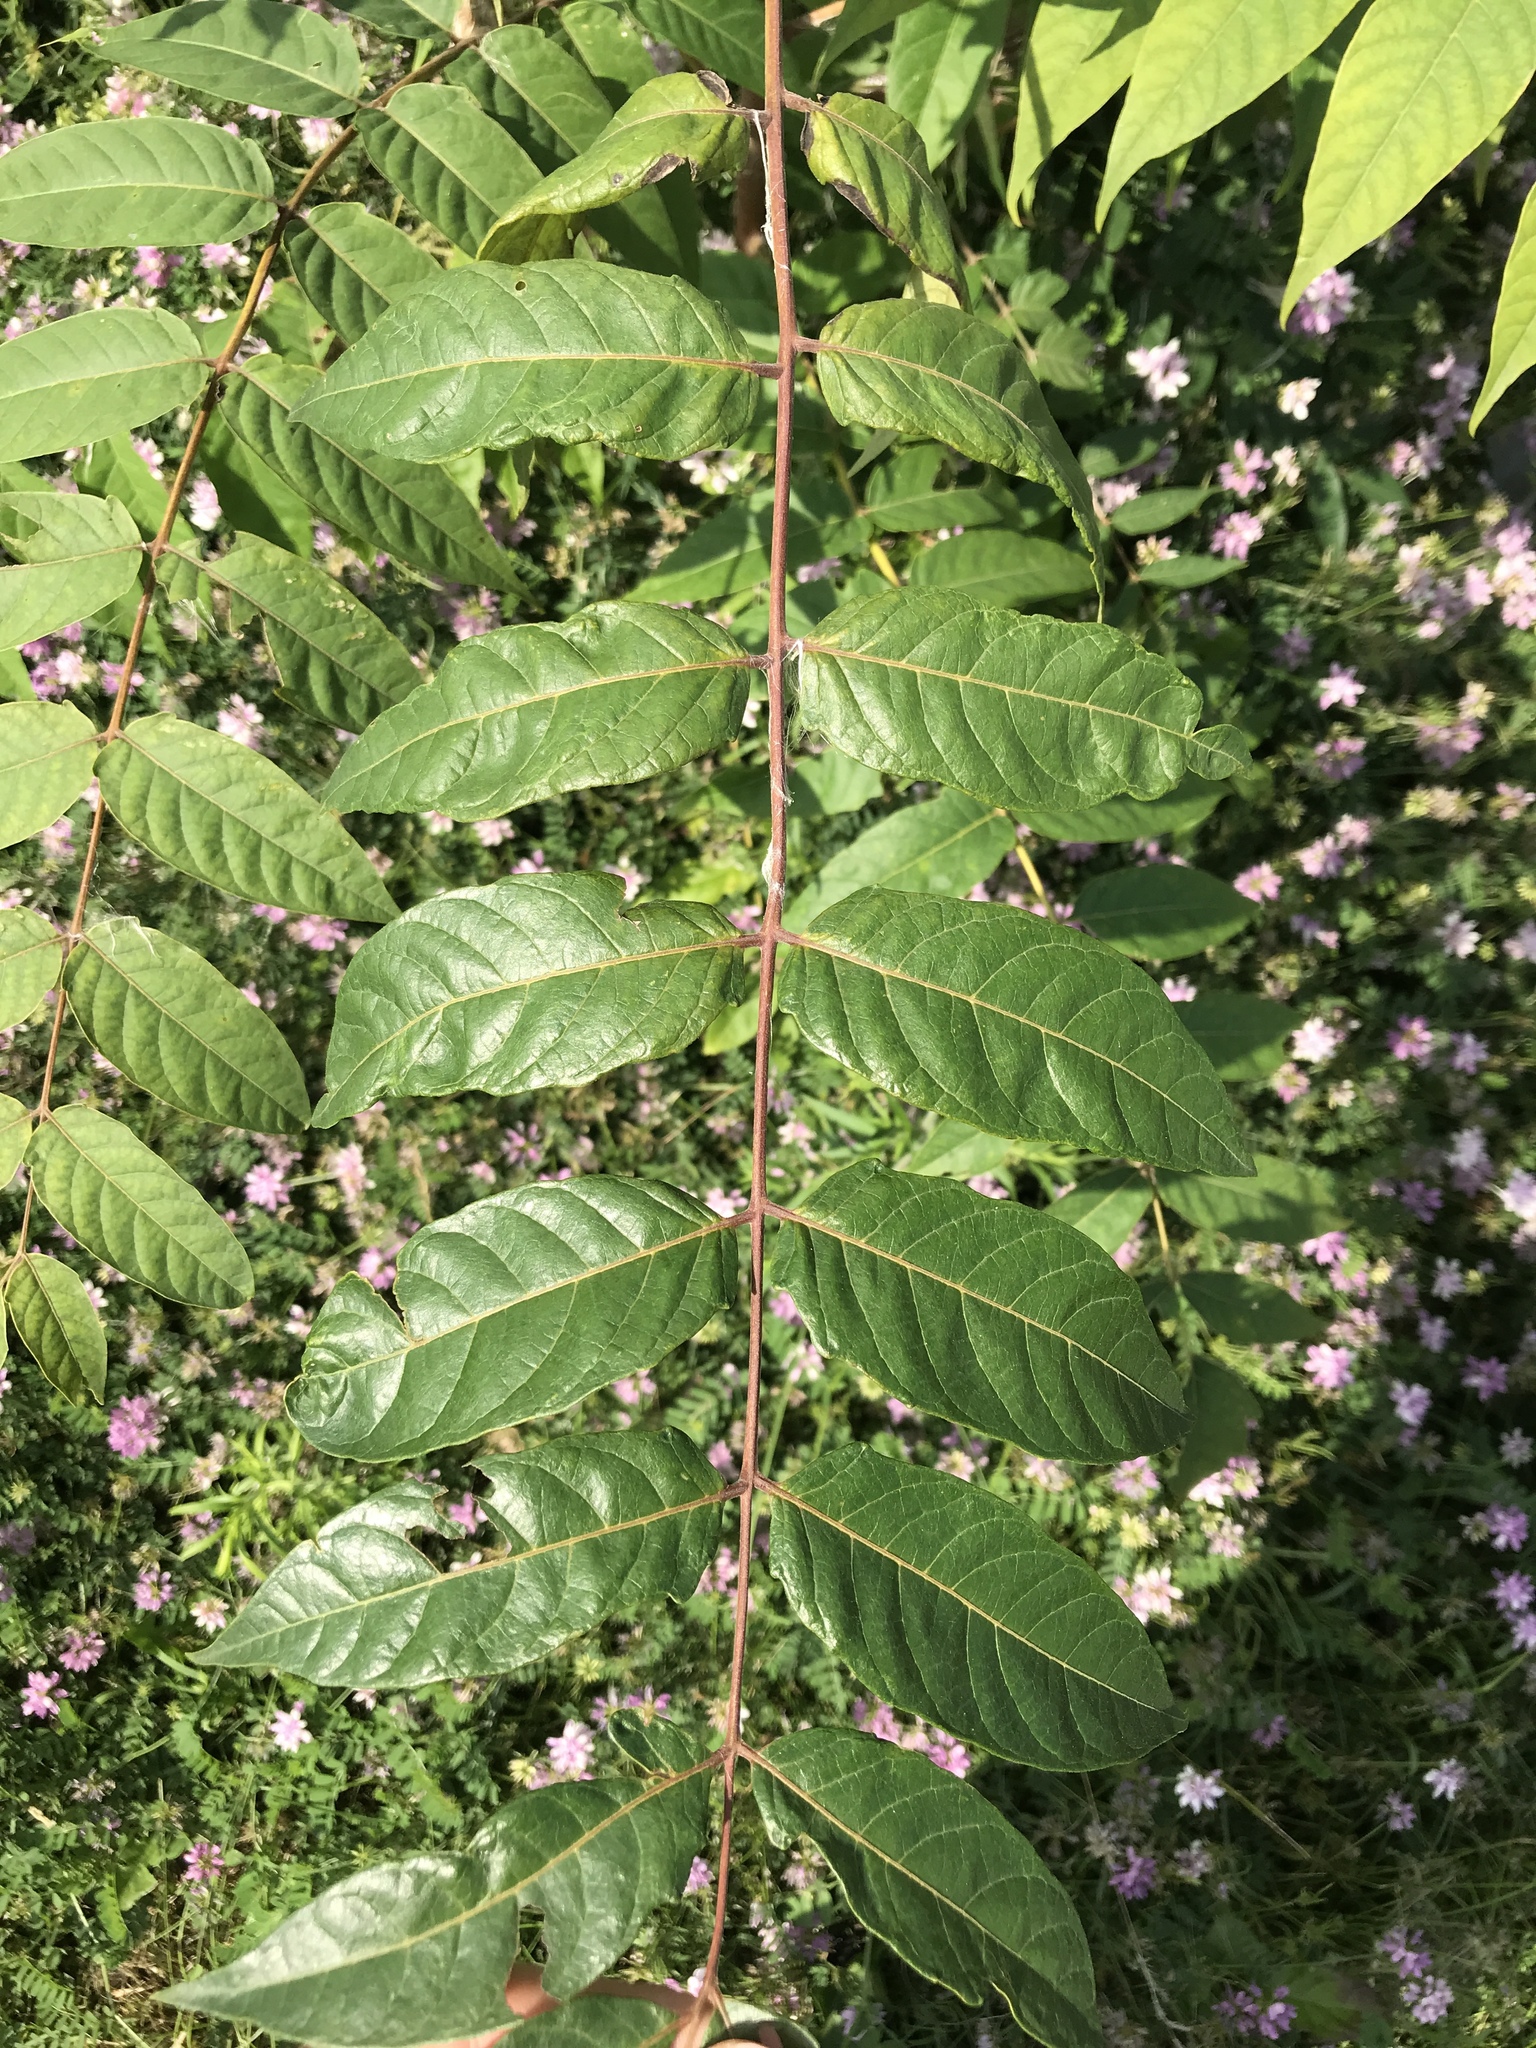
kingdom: Plantae
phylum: Tracheophyta
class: Magnoliopsida
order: Sapindales
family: Simaroubaceae
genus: Ailanthus
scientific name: Ailanthus altissima
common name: Tree-of-heaven
